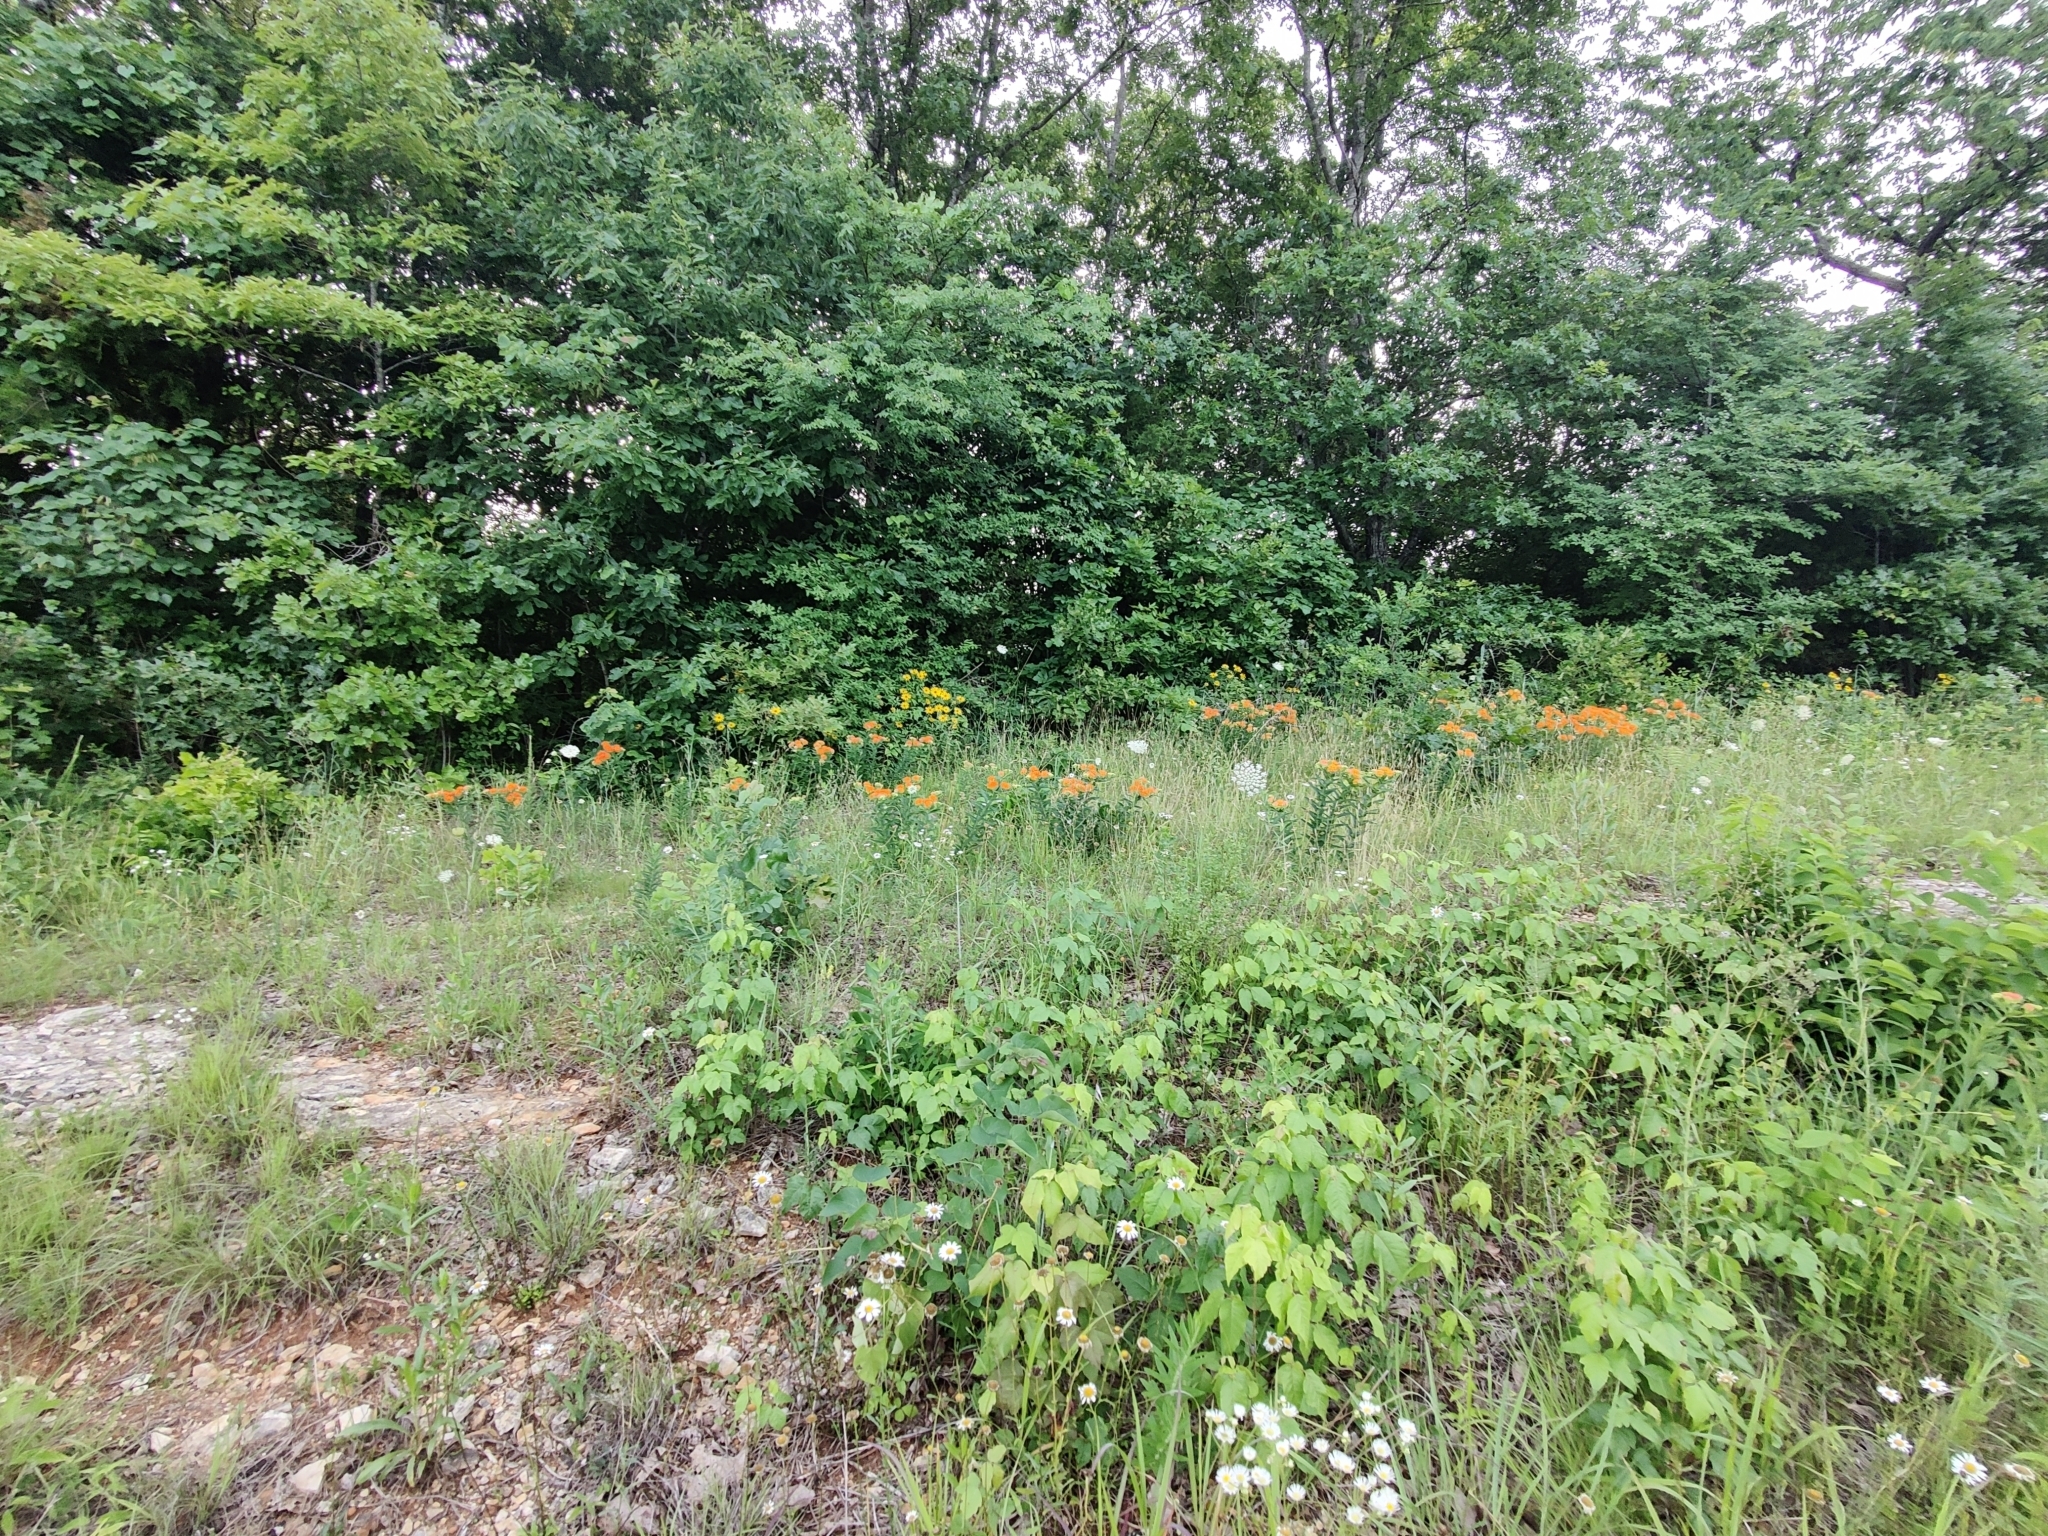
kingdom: Plantae
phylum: Tracheophyta
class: Magnoliopsida
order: Gentianales
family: Apocynaceae
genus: Asclepias
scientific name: Asclepias tuberosa
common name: Butterfly milkweed
